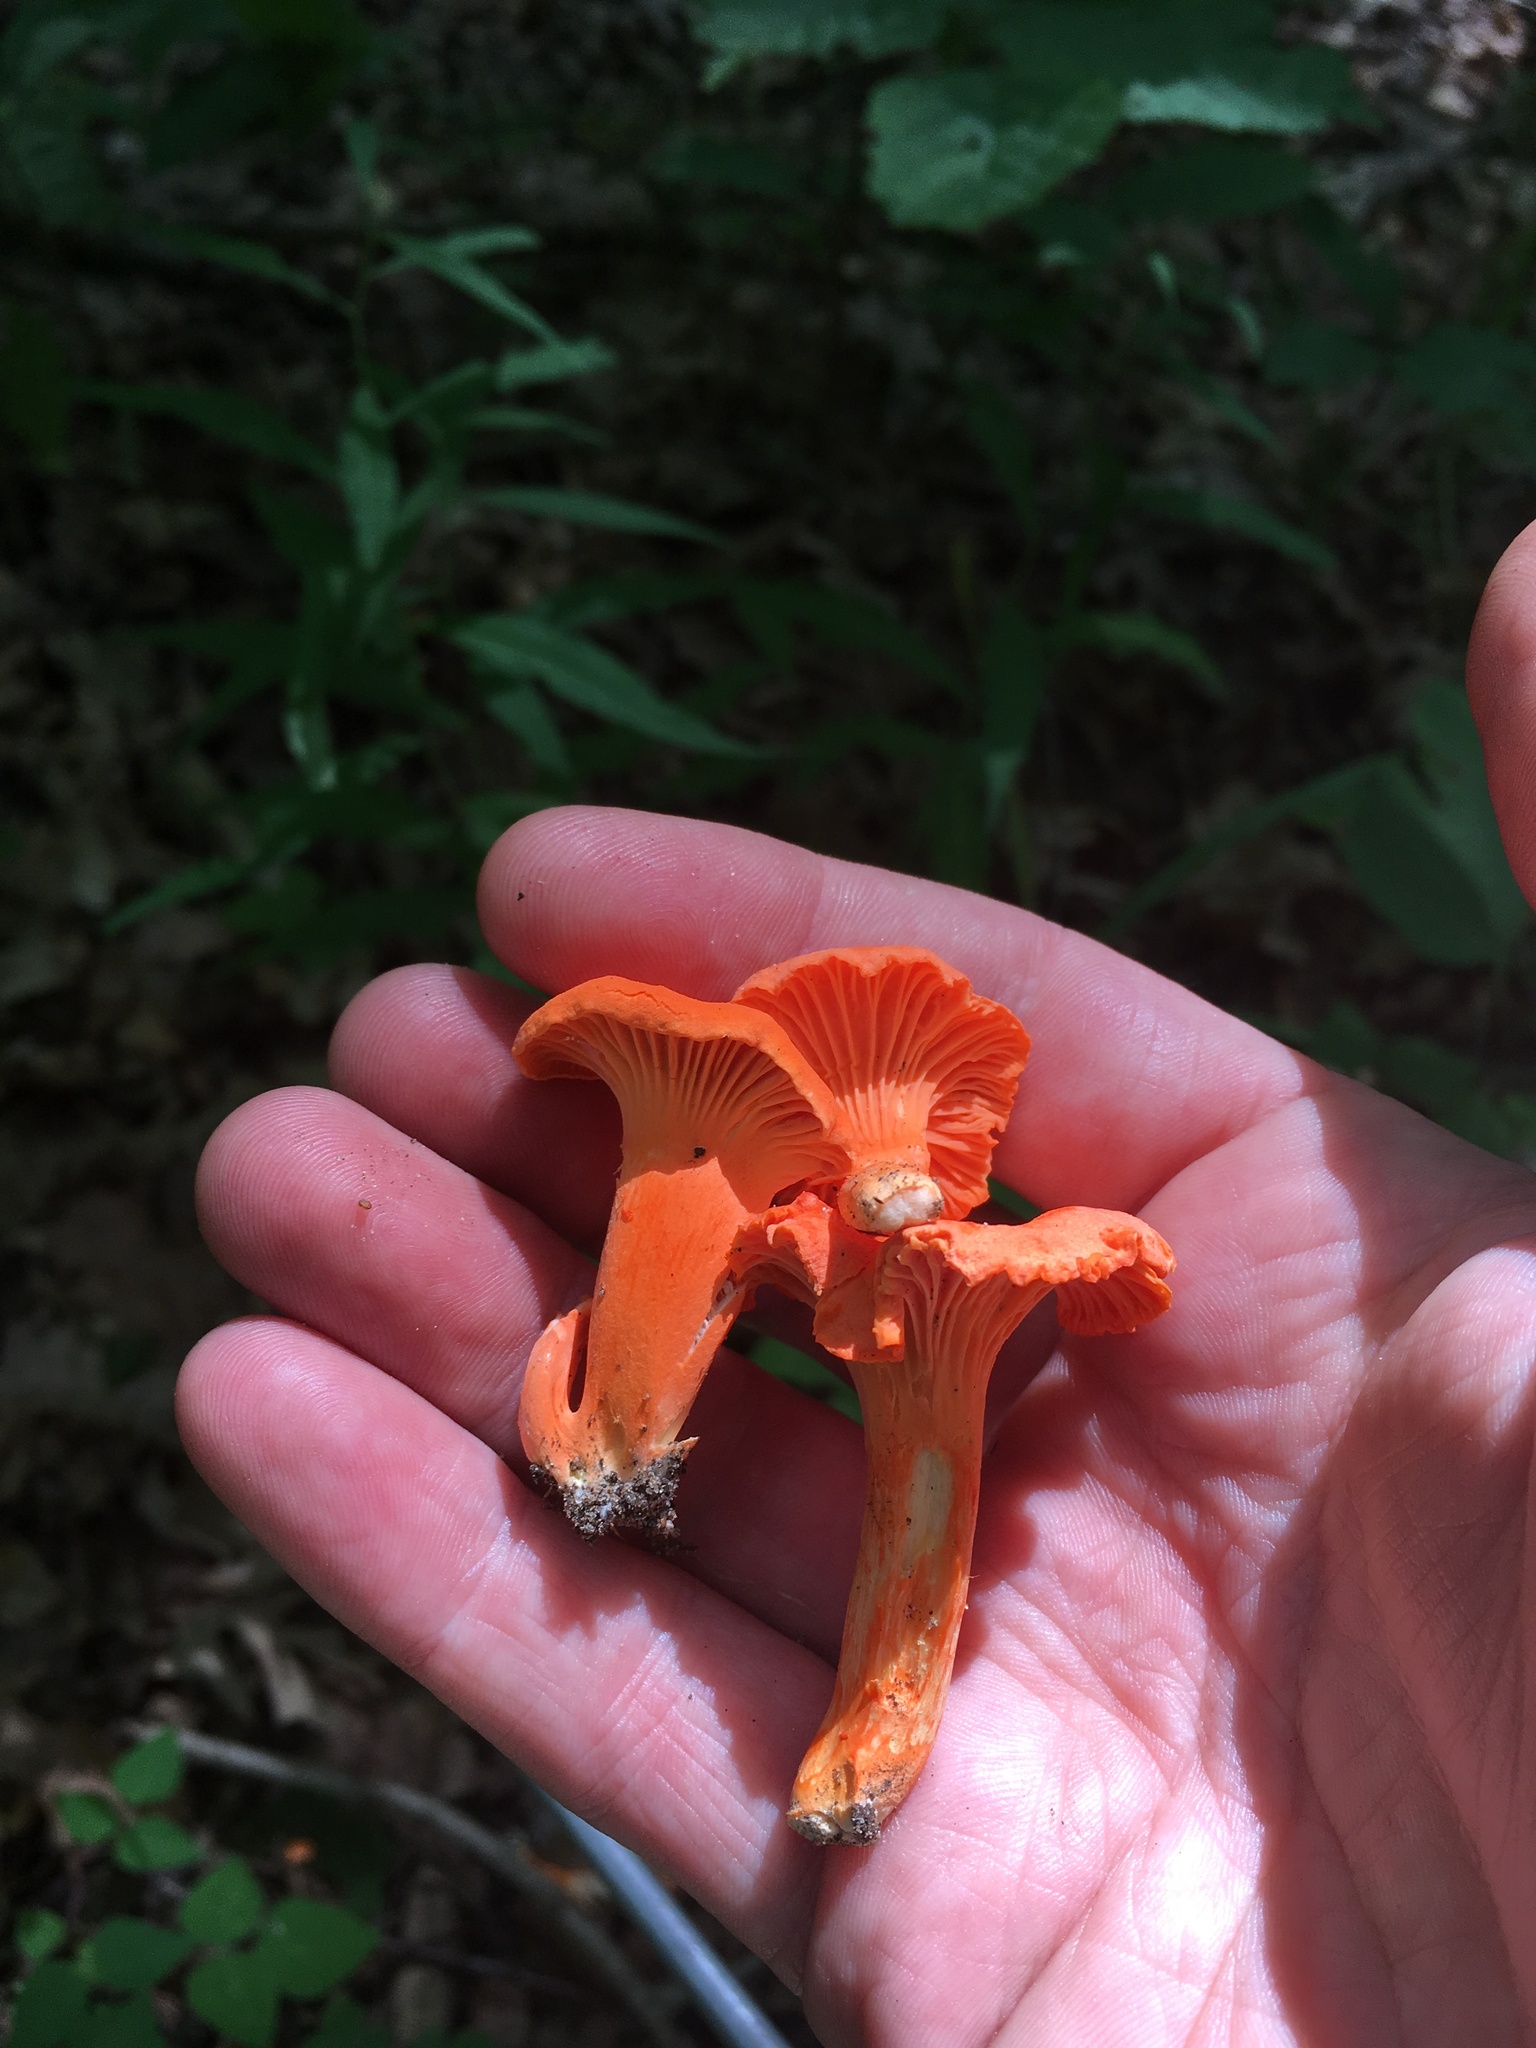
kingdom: Fungi
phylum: Basidiomycota
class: Agaricomycetes
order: Cantharellales
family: Hydnaceae
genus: Cantharellus
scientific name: Cantharellus cinnabarinus
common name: Cinnabar chanterelle
